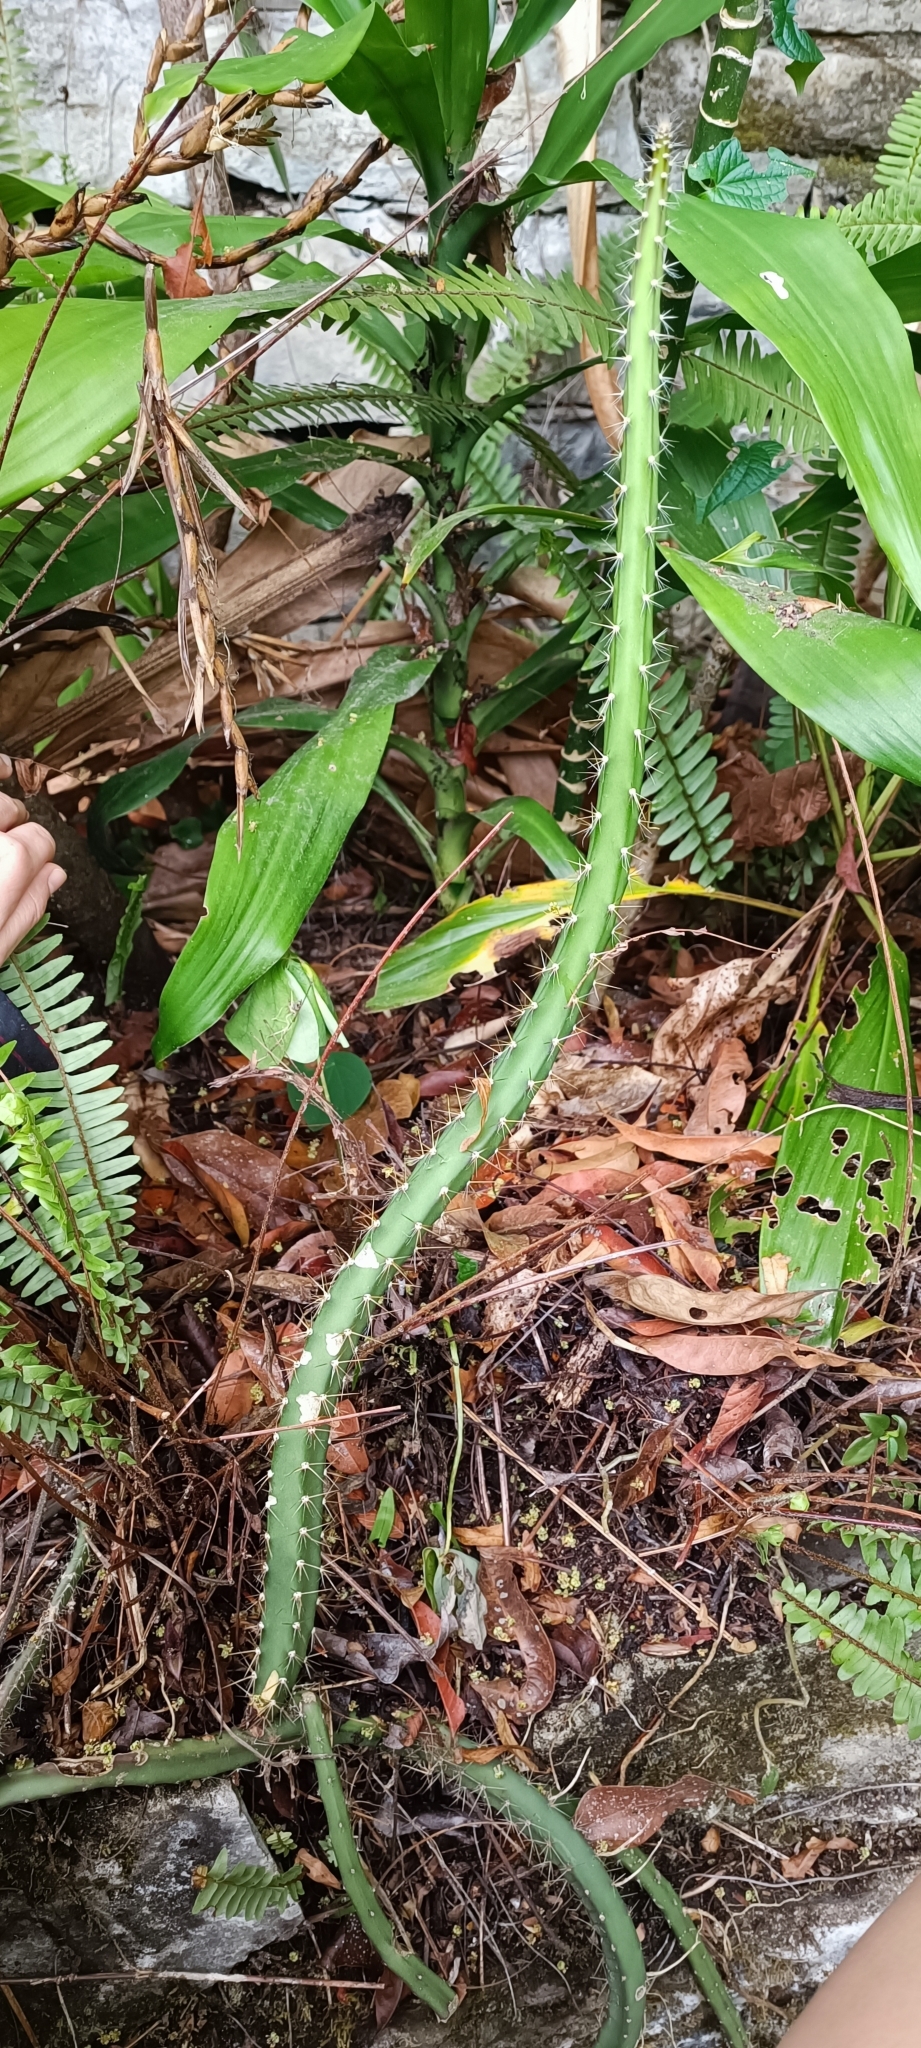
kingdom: Plantae
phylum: Tracheophyta
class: Magnoliopsida
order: Caryophyllales
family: Cactaceae
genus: Acanthocereus
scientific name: Acanthocereus tetragonus
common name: Triangle cactus
